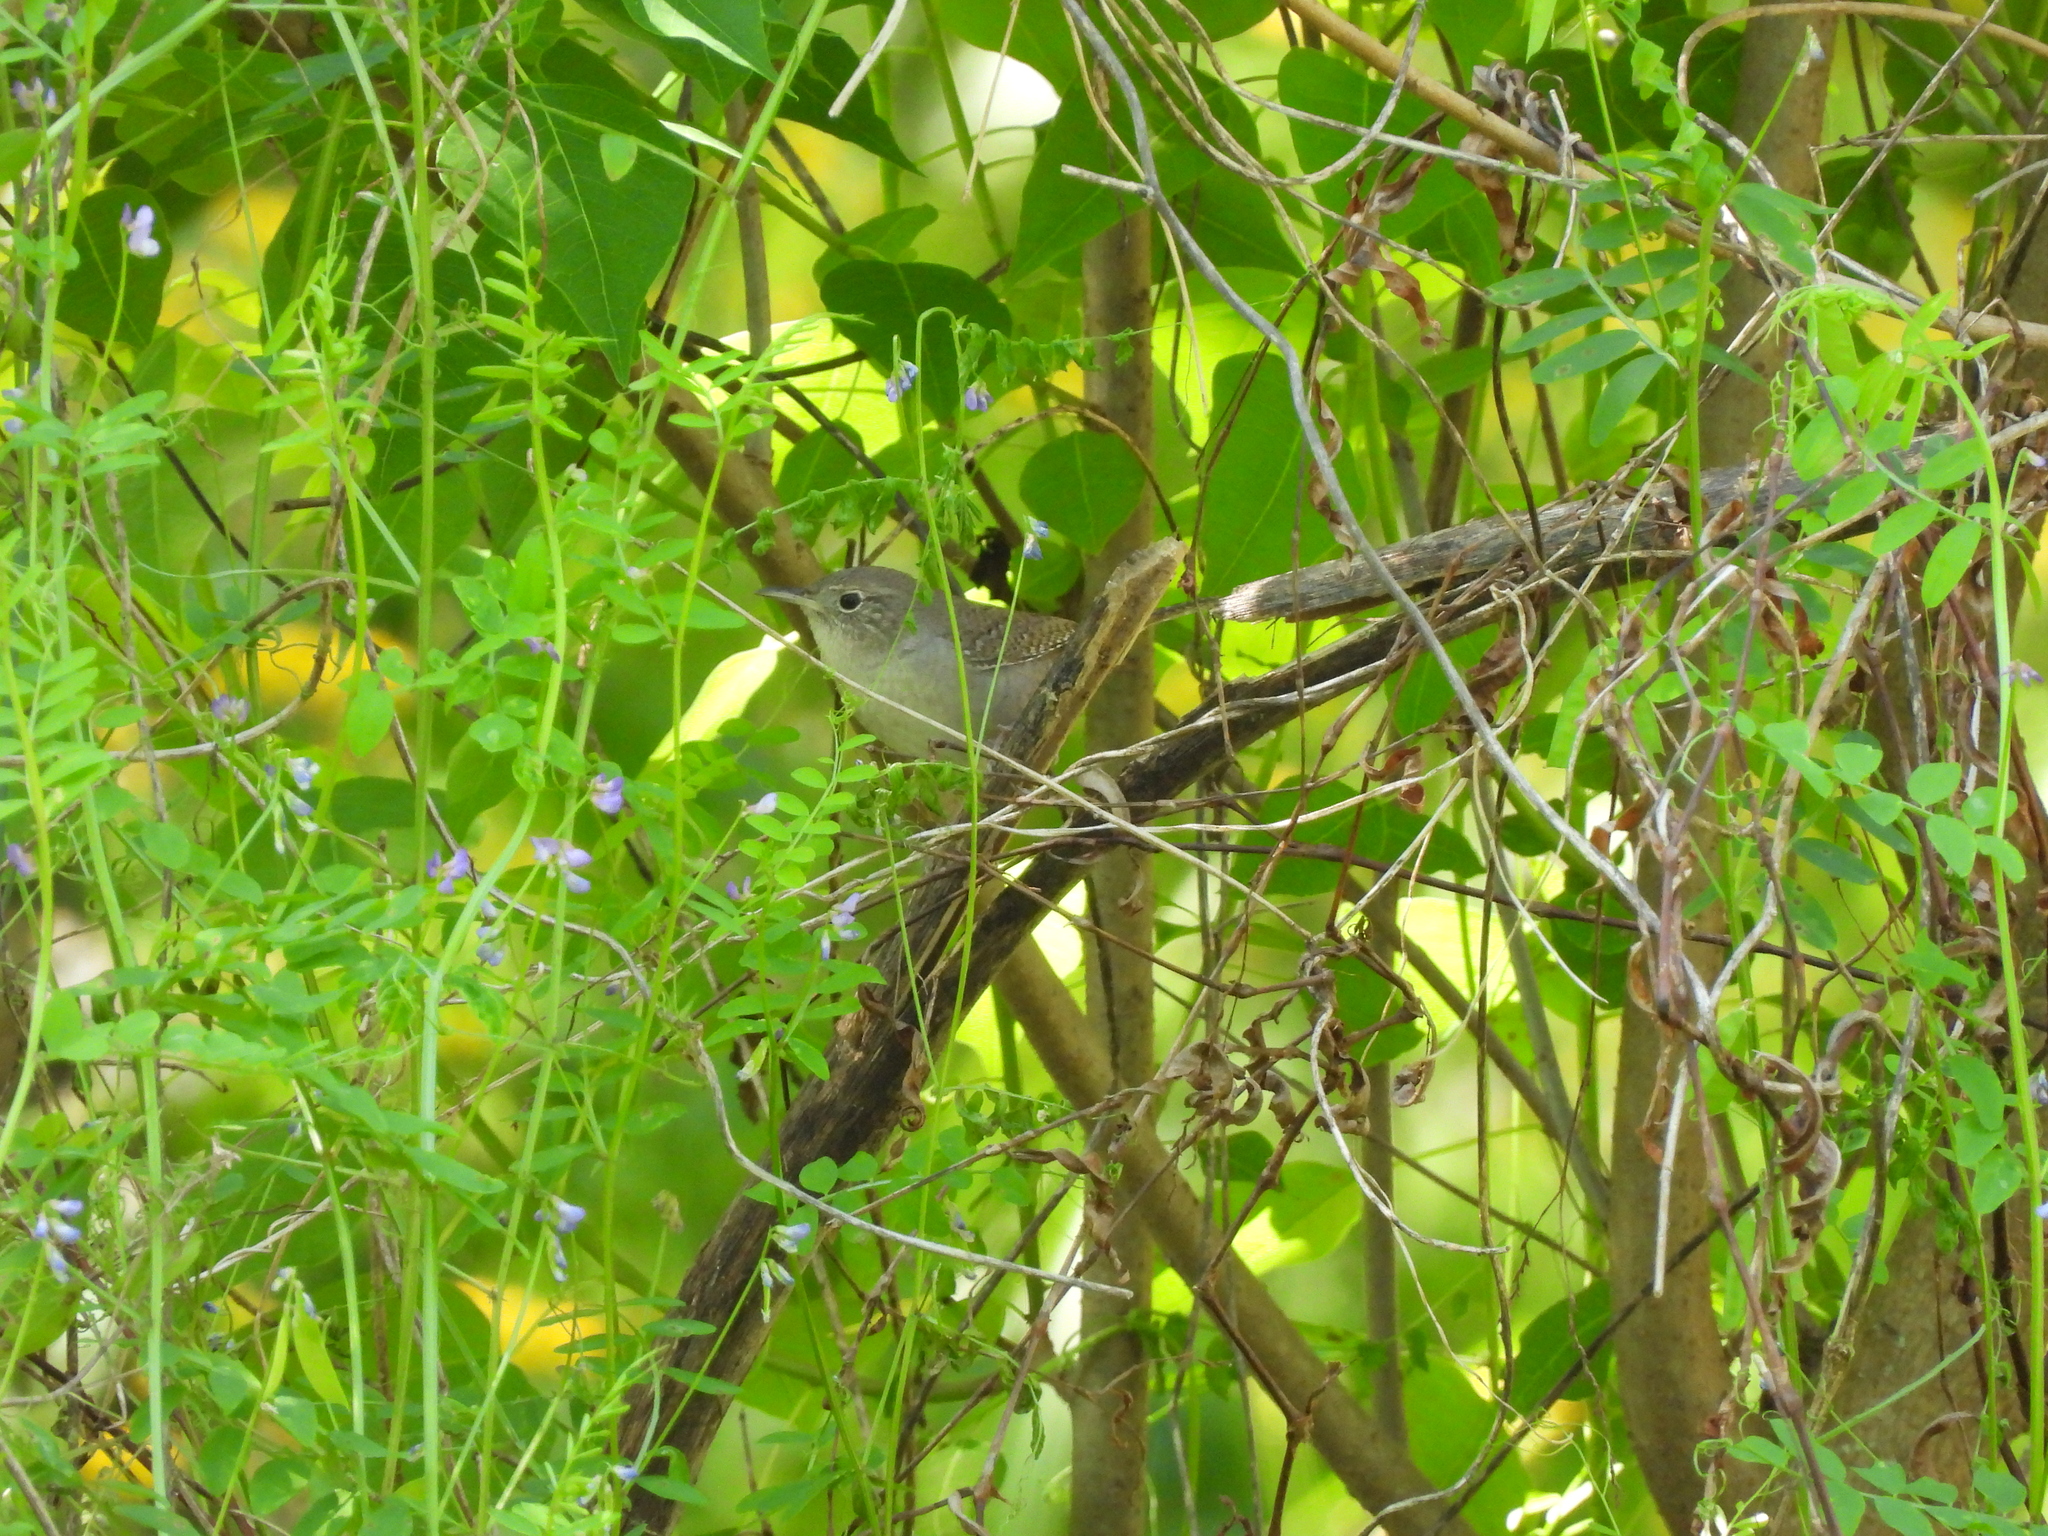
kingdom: Animalia
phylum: Chordata
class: Aves
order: Passeriformes
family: Troglodytidae
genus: Troglodytes
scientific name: Troglodytes aedon
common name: House wren
